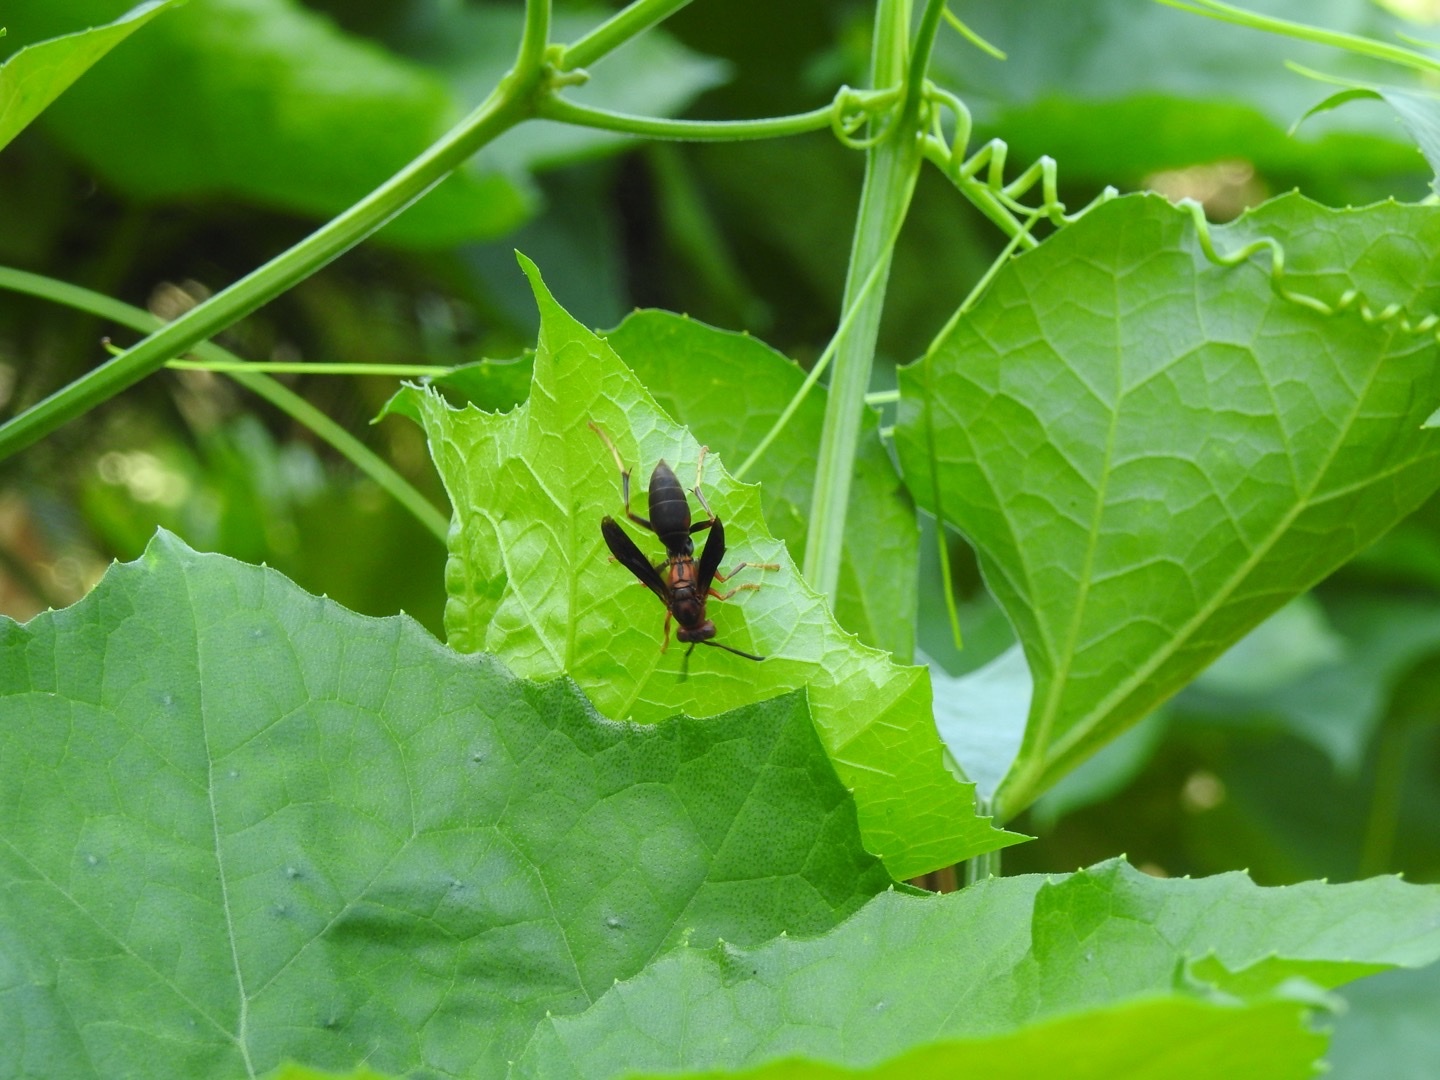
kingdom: Animalia
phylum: Arthropoda
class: Insecta
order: Hymenoptera
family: Eumenidae
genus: Polistes
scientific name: Polistes metricus
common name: Metric paper wasp
